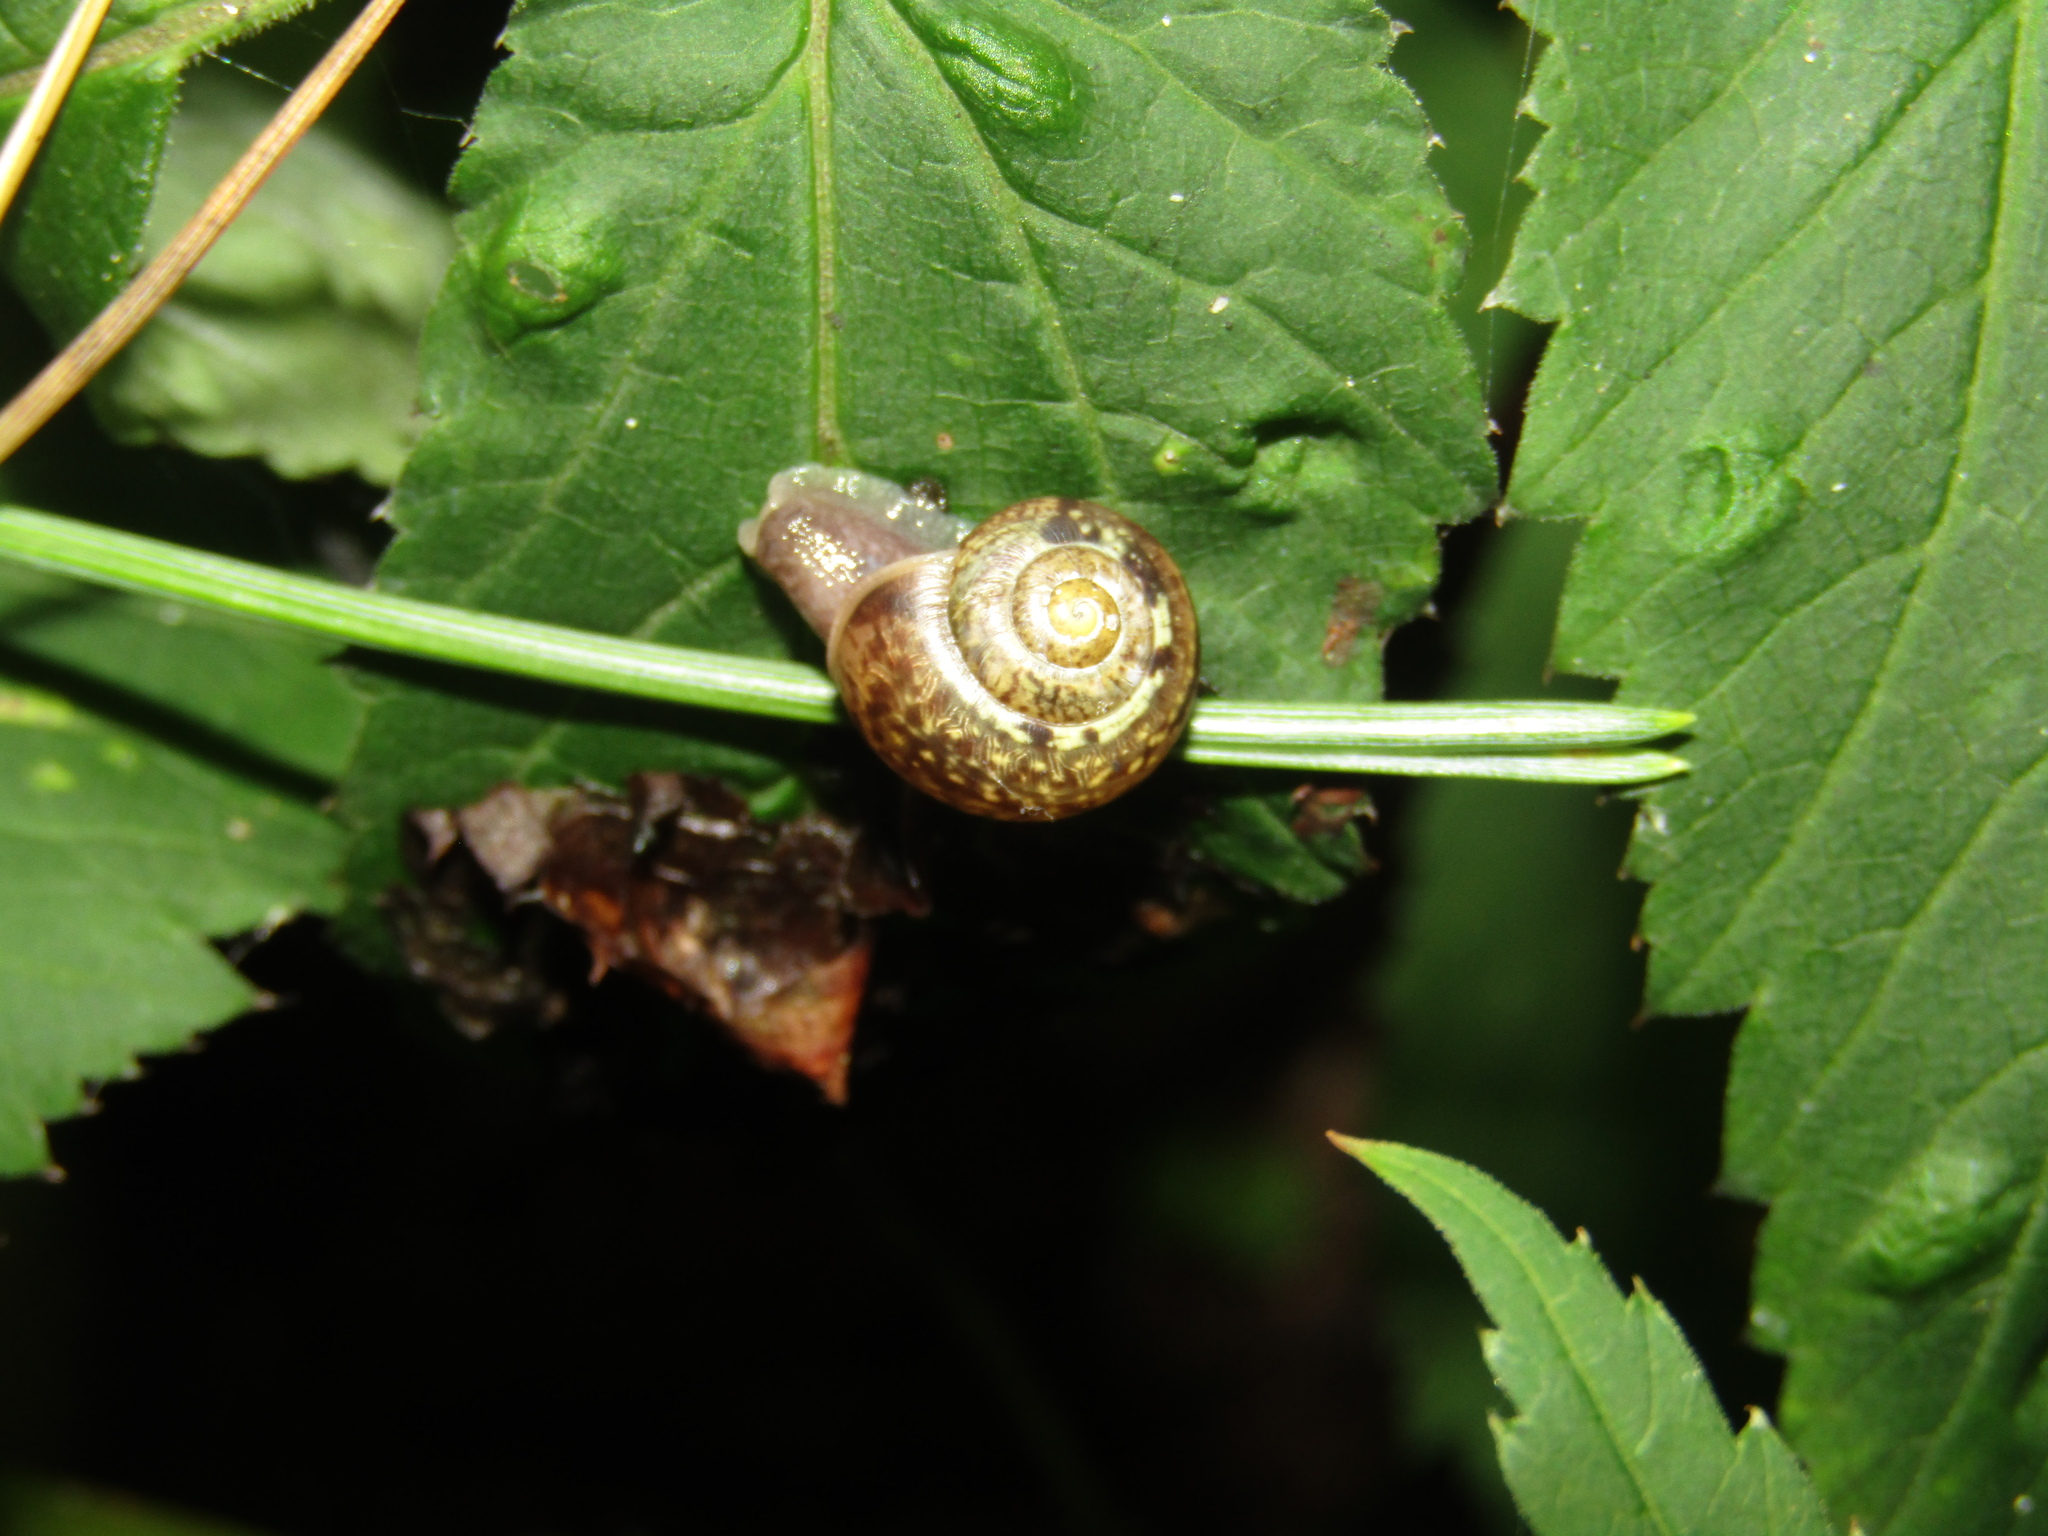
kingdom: Animalia
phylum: Mollusca
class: Gastropoda
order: Stylommatophora
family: Camaenidae
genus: Fruticicola
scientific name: Fruticicola fruticum
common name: Bush snail
